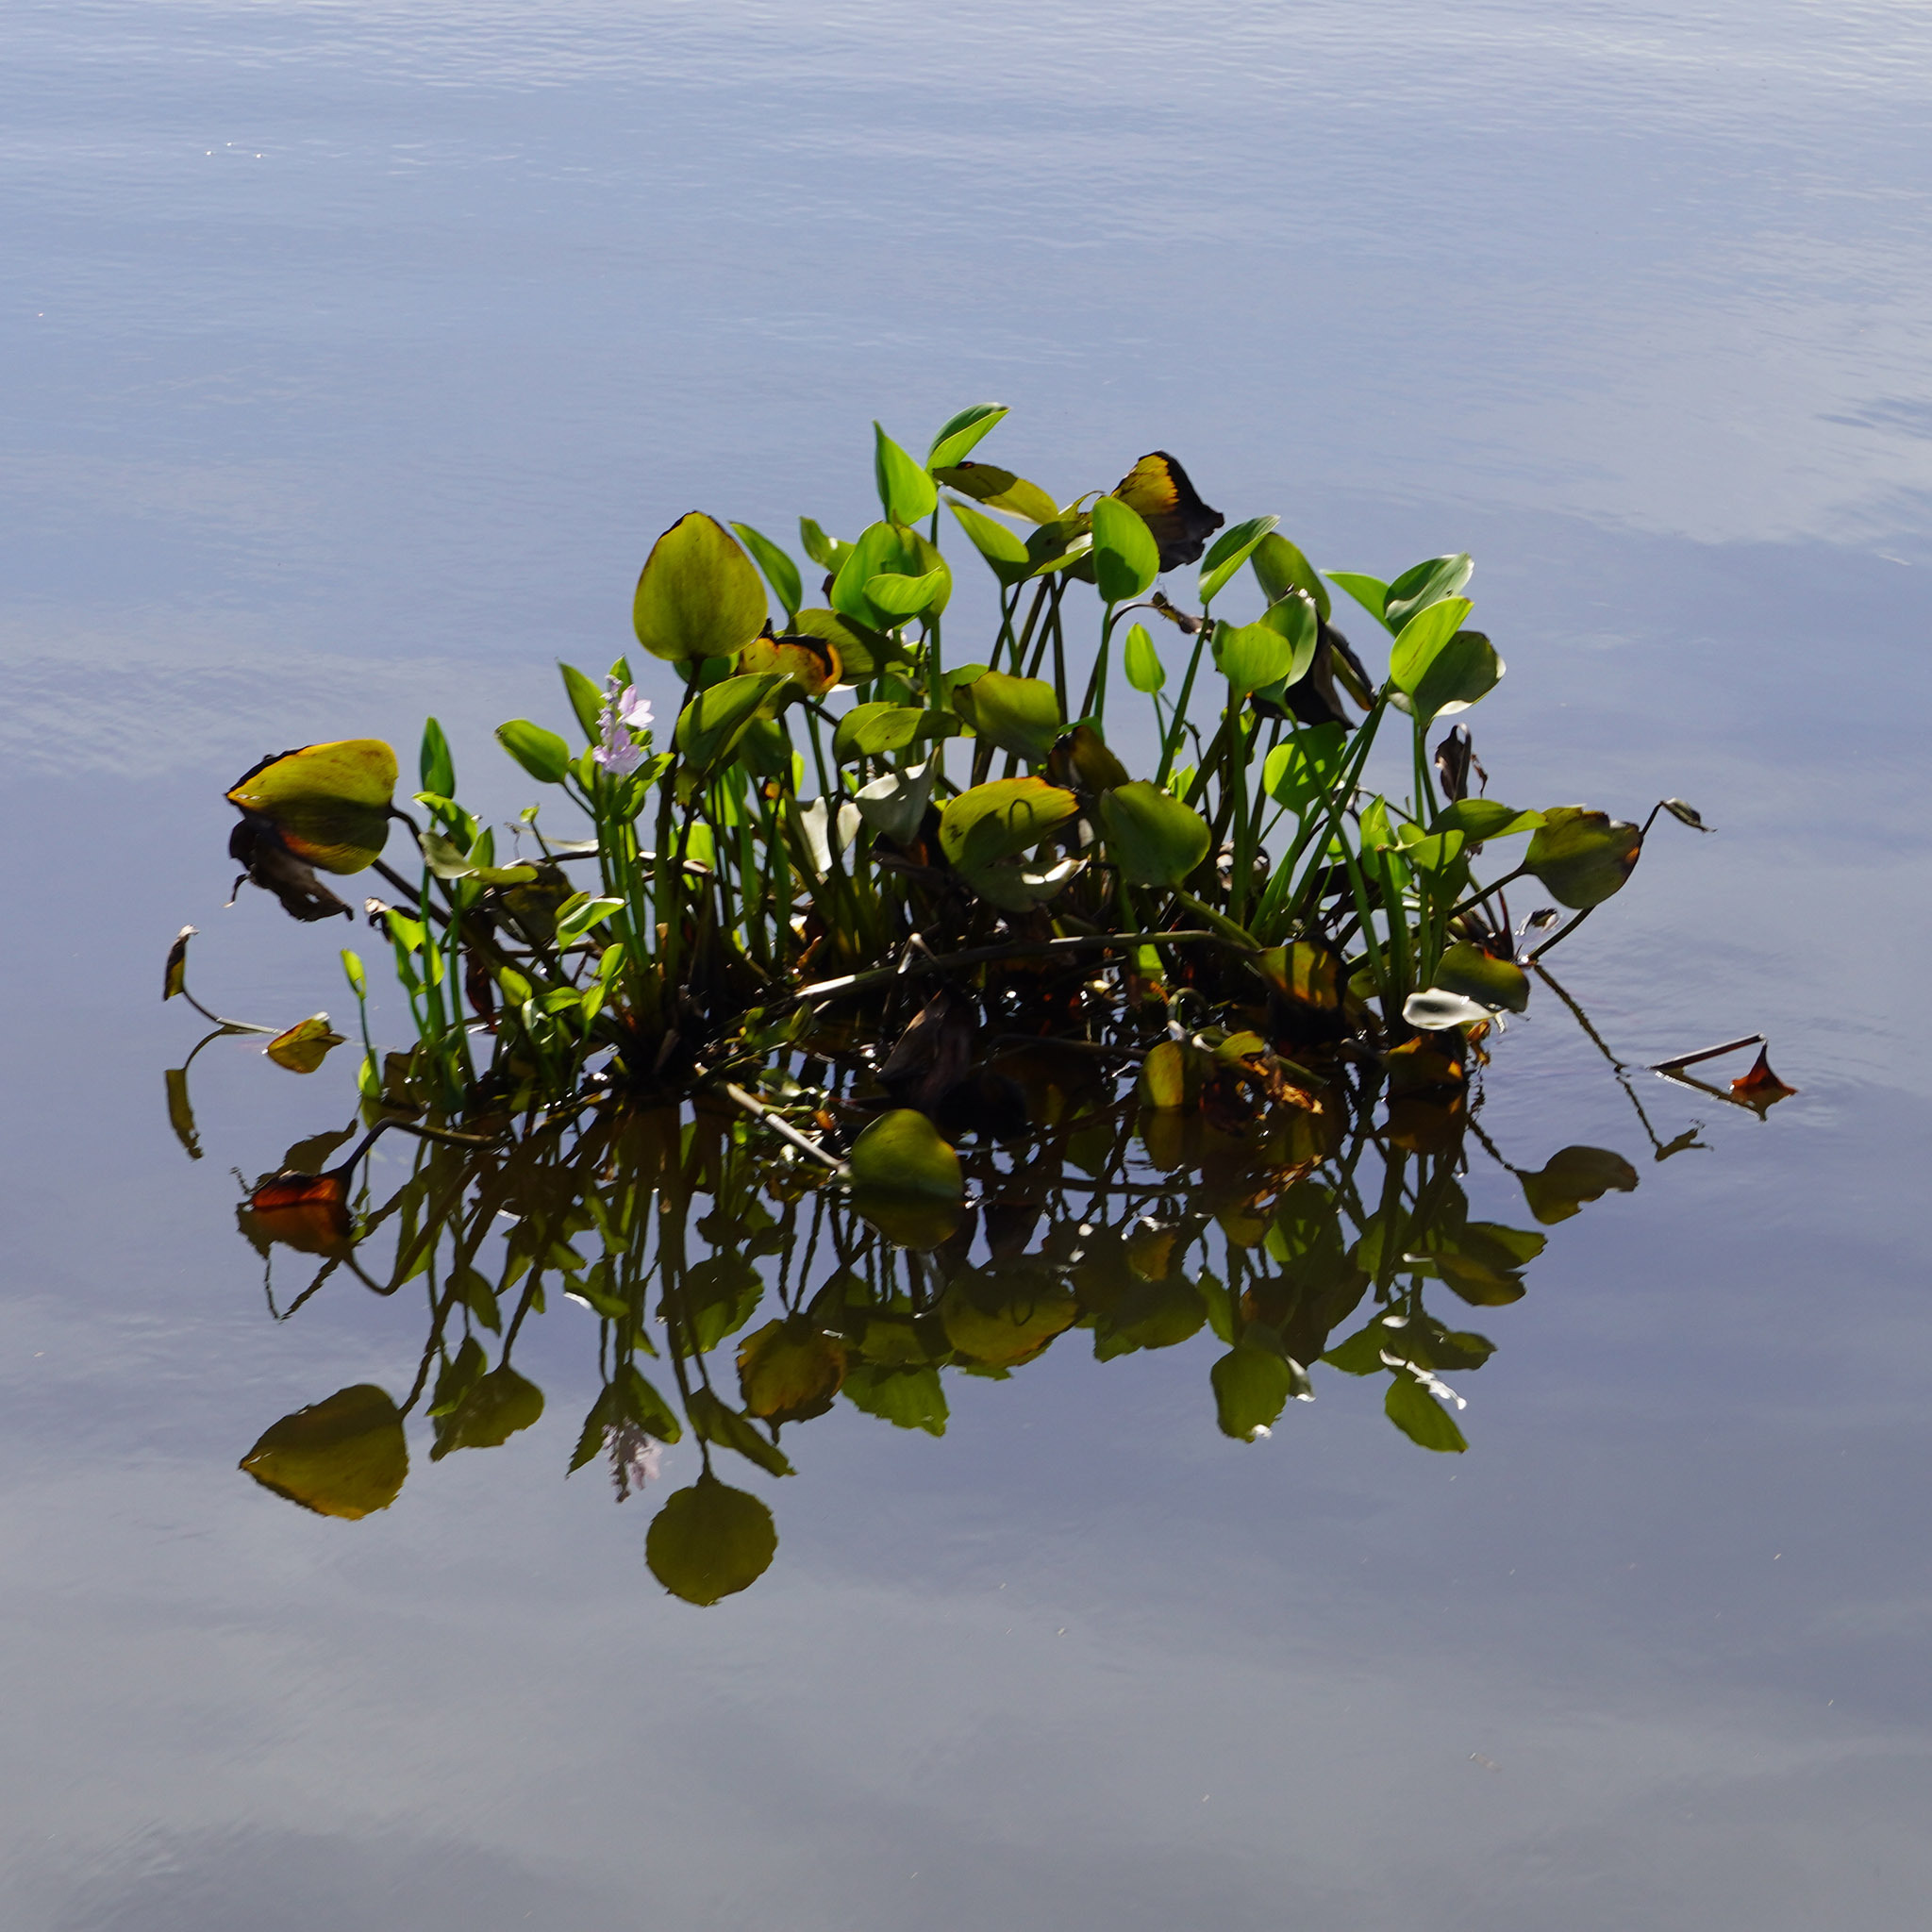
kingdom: Plantae
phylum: Tracheophyta
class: Liliopsida
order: Commelinales
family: Pontederiaceae
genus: Pontederia
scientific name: Pontederia crassipes
